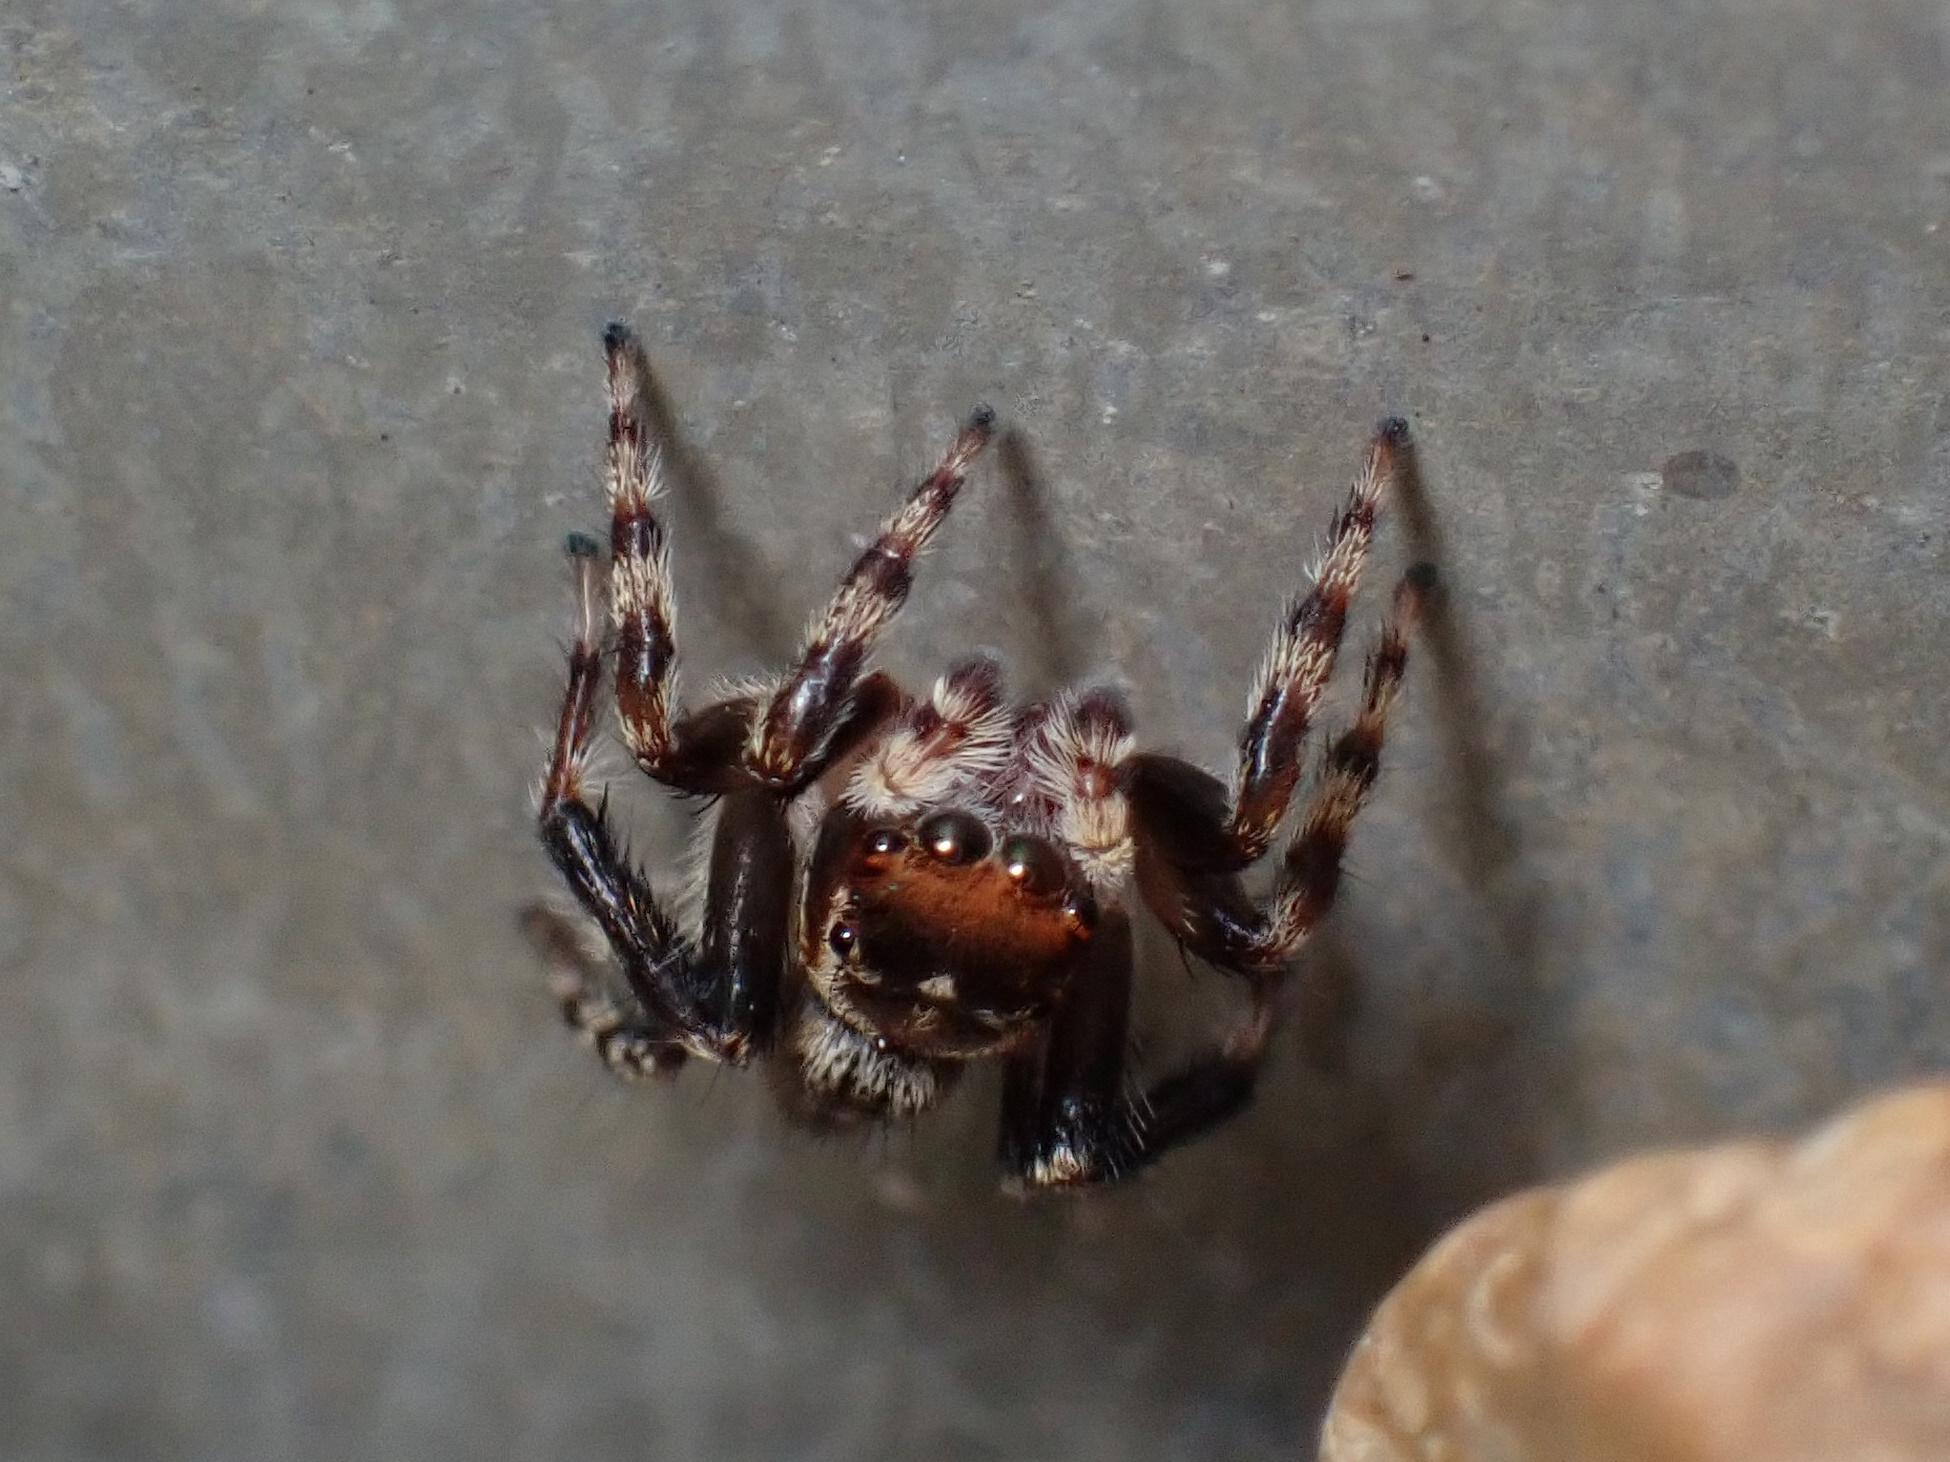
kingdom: Animalia
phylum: Arthropoda
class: Arachnida
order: Araneae
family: Salticidae
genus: Maratus
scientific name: Maratus griseus
